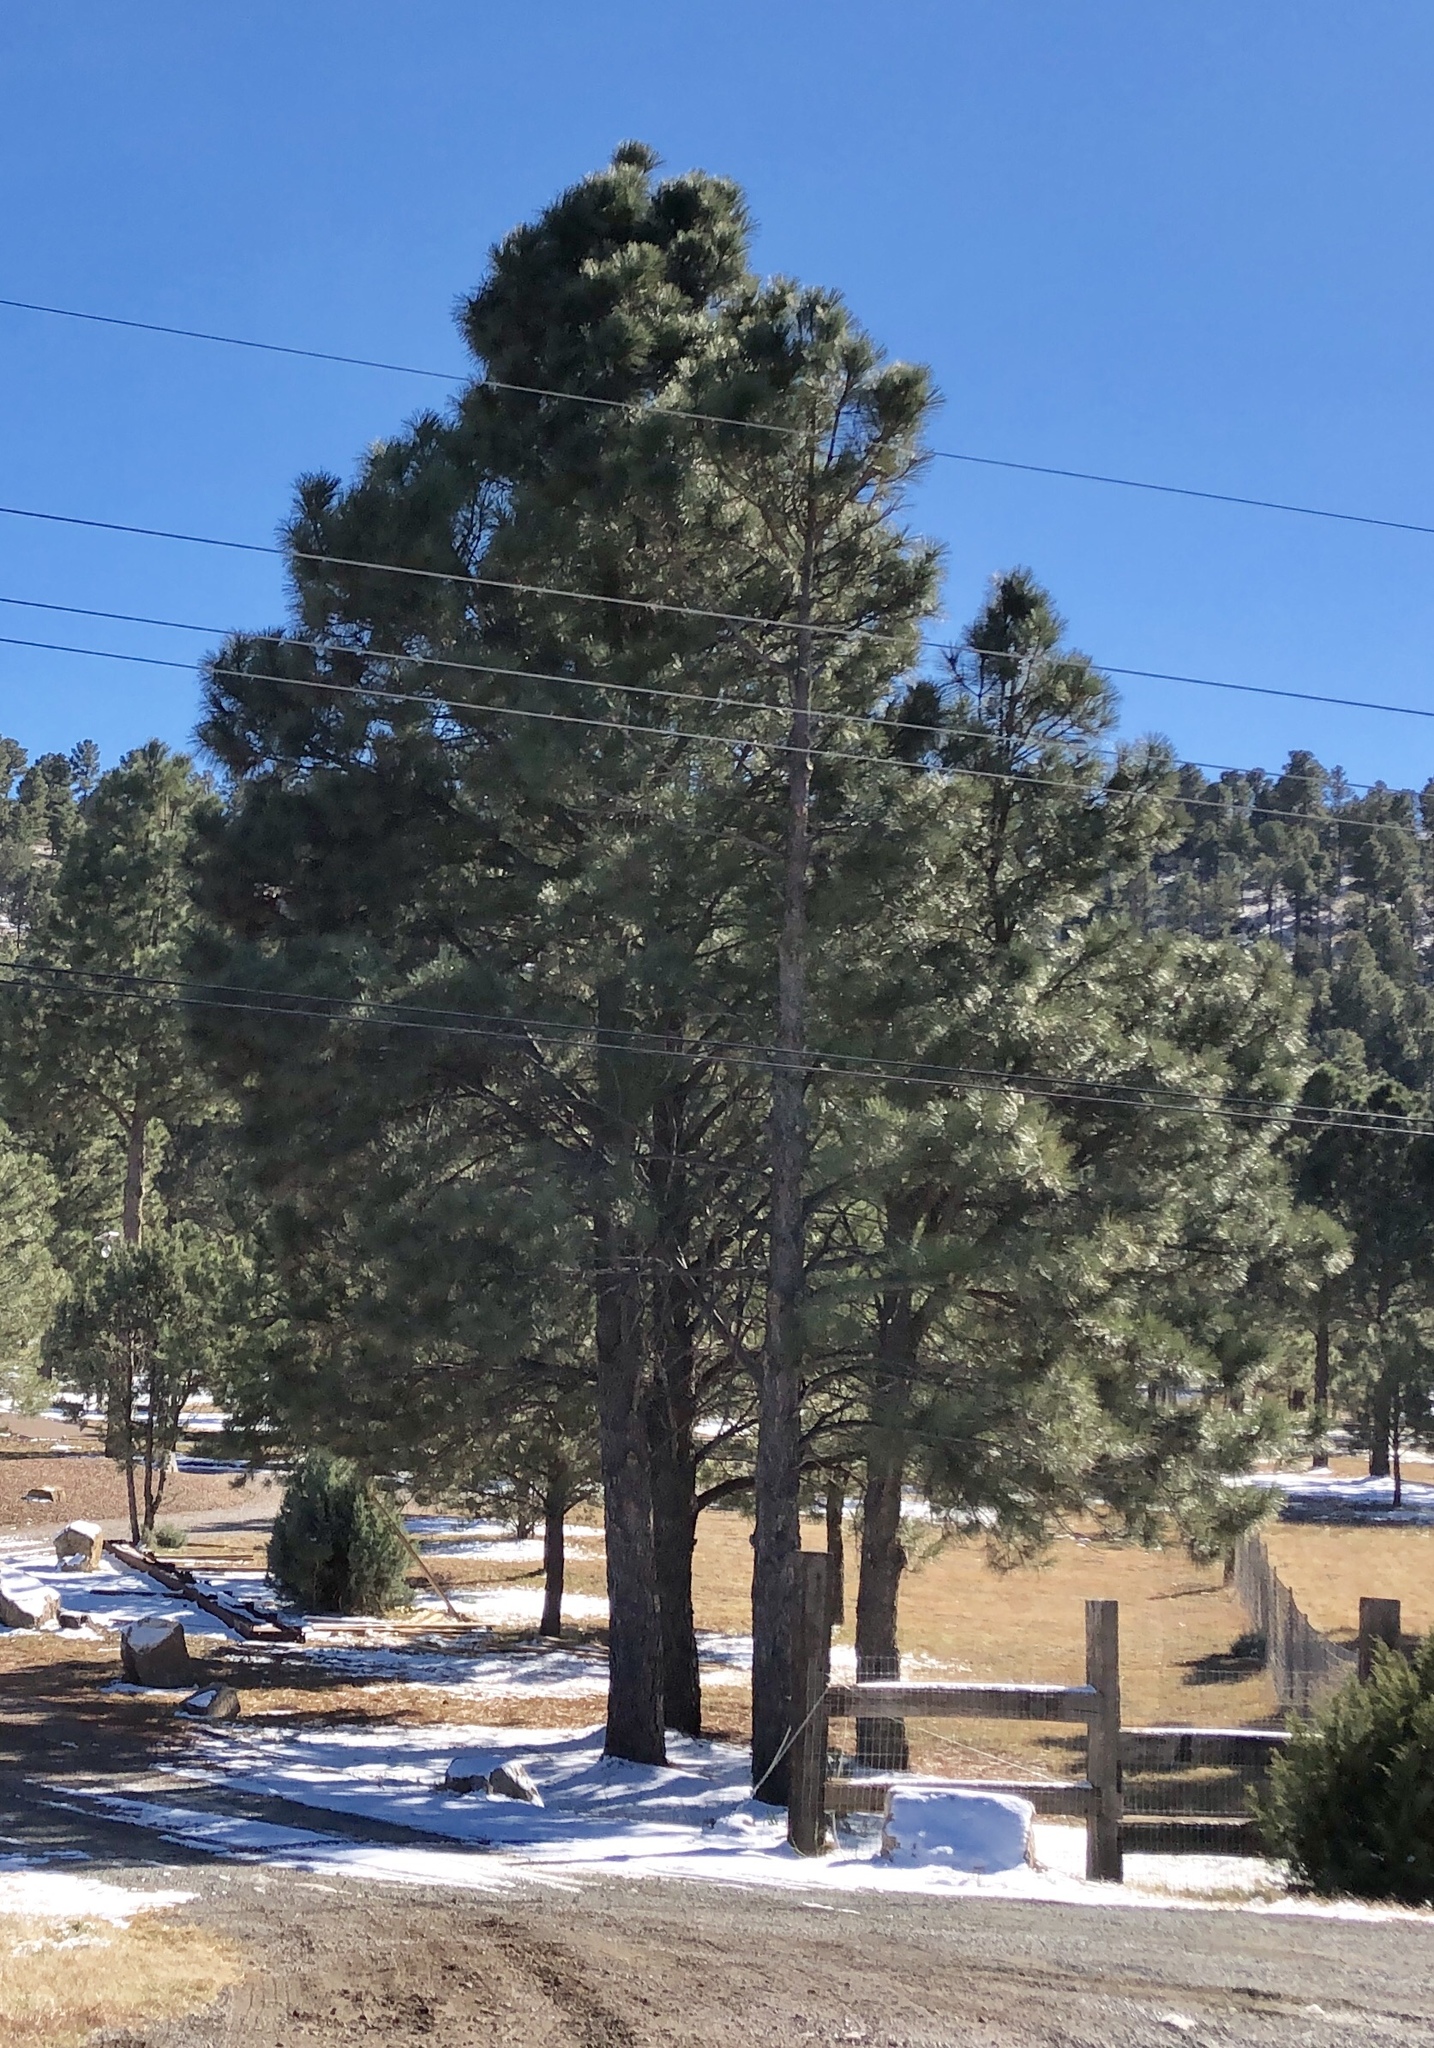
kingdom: Plantae
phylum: Tracheophyta
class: Pinopsida
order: Pinales
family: Pinaceae
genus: Pinus
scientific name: Pinus ponderosa
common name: Western yellow-pine
